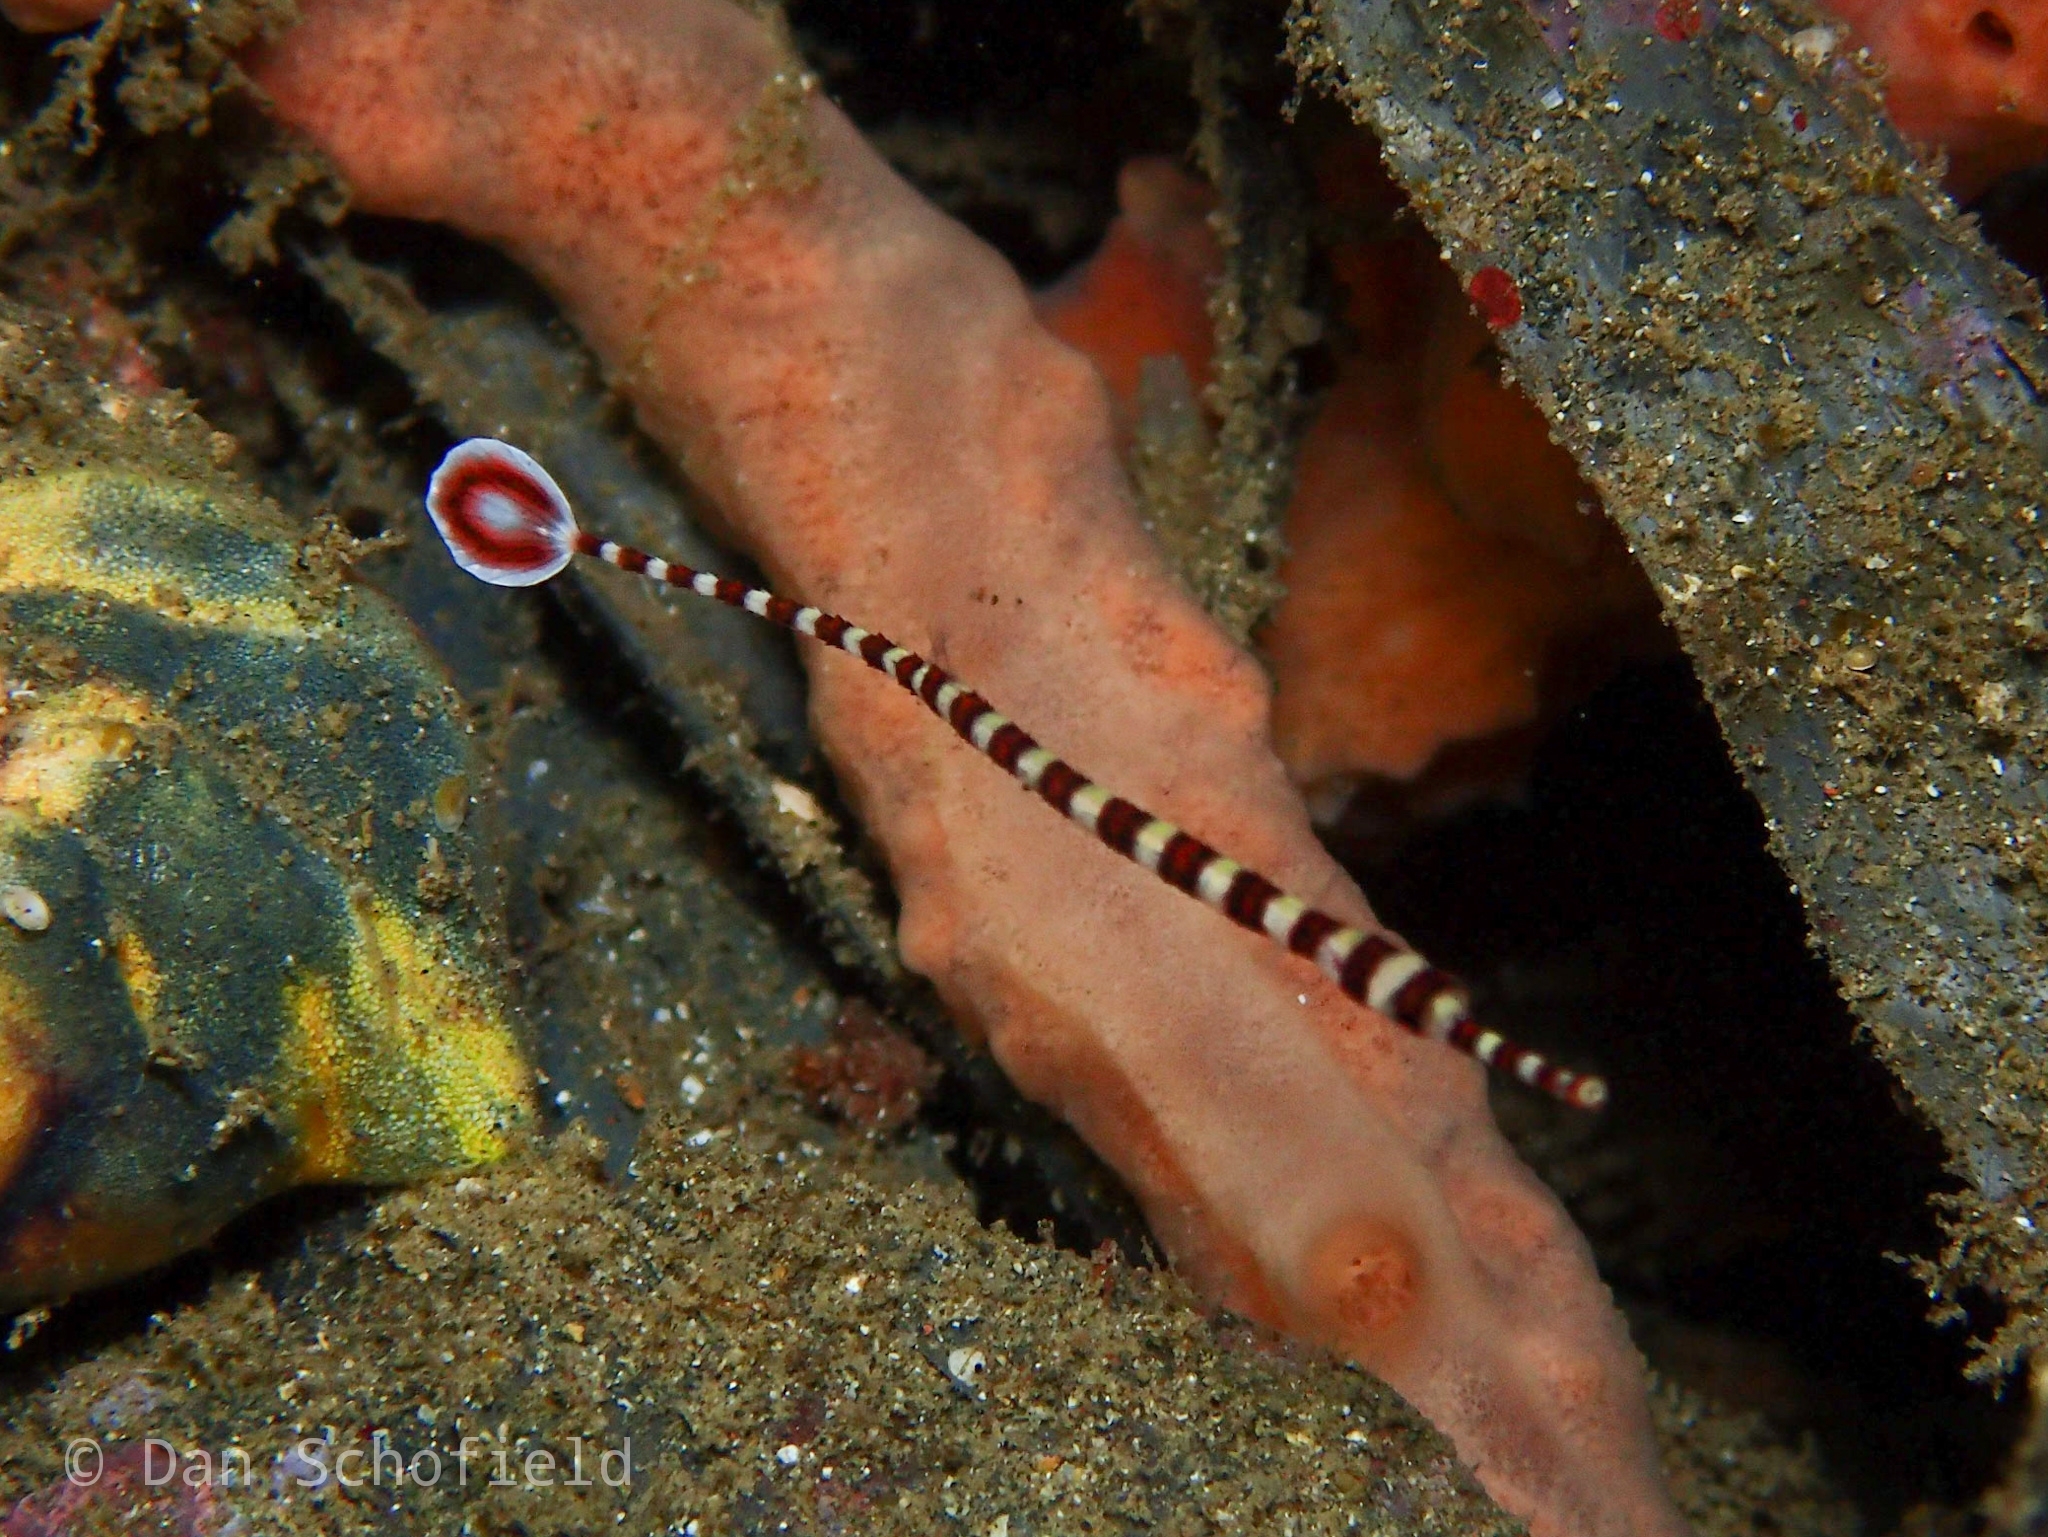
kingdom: Animalia
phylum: Chordata
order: Syngnathiformes
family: Syngnathidae
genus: Dunckerocampus
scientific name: Dunckerocampus dactyliophorus
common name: Banded pipefish
